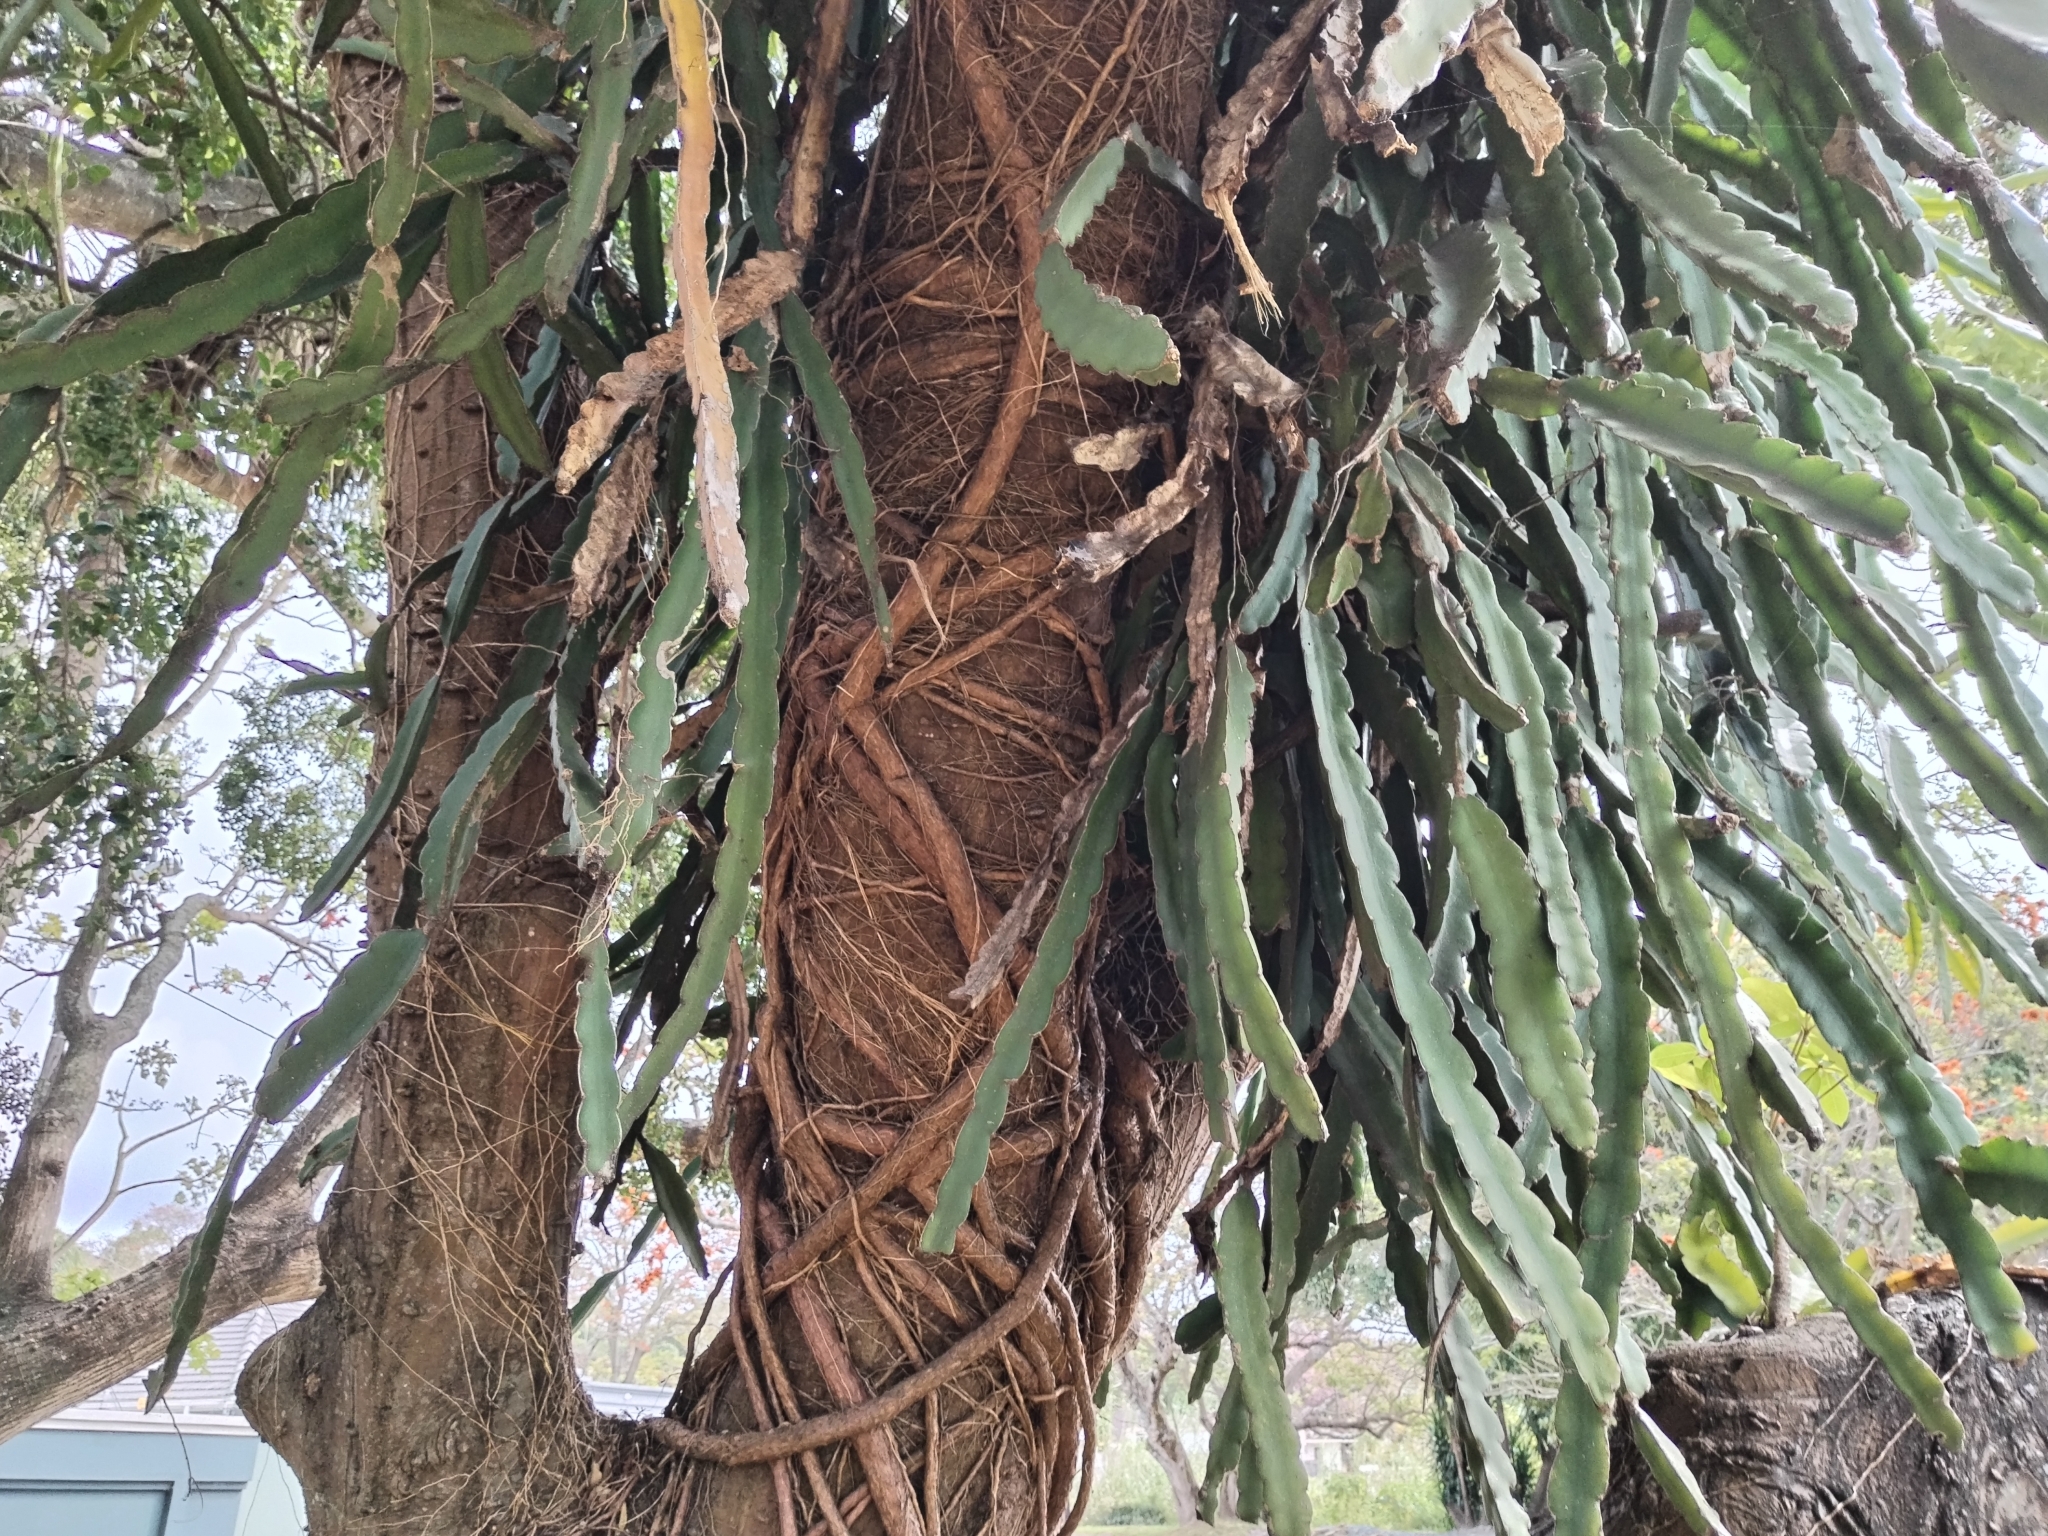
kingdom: Plantae
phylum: Tracheophyta
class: Magnoliopsida
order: Caryophyllales
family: Cactaceae
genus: Selenicereus
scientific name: Selenicereus undatus
